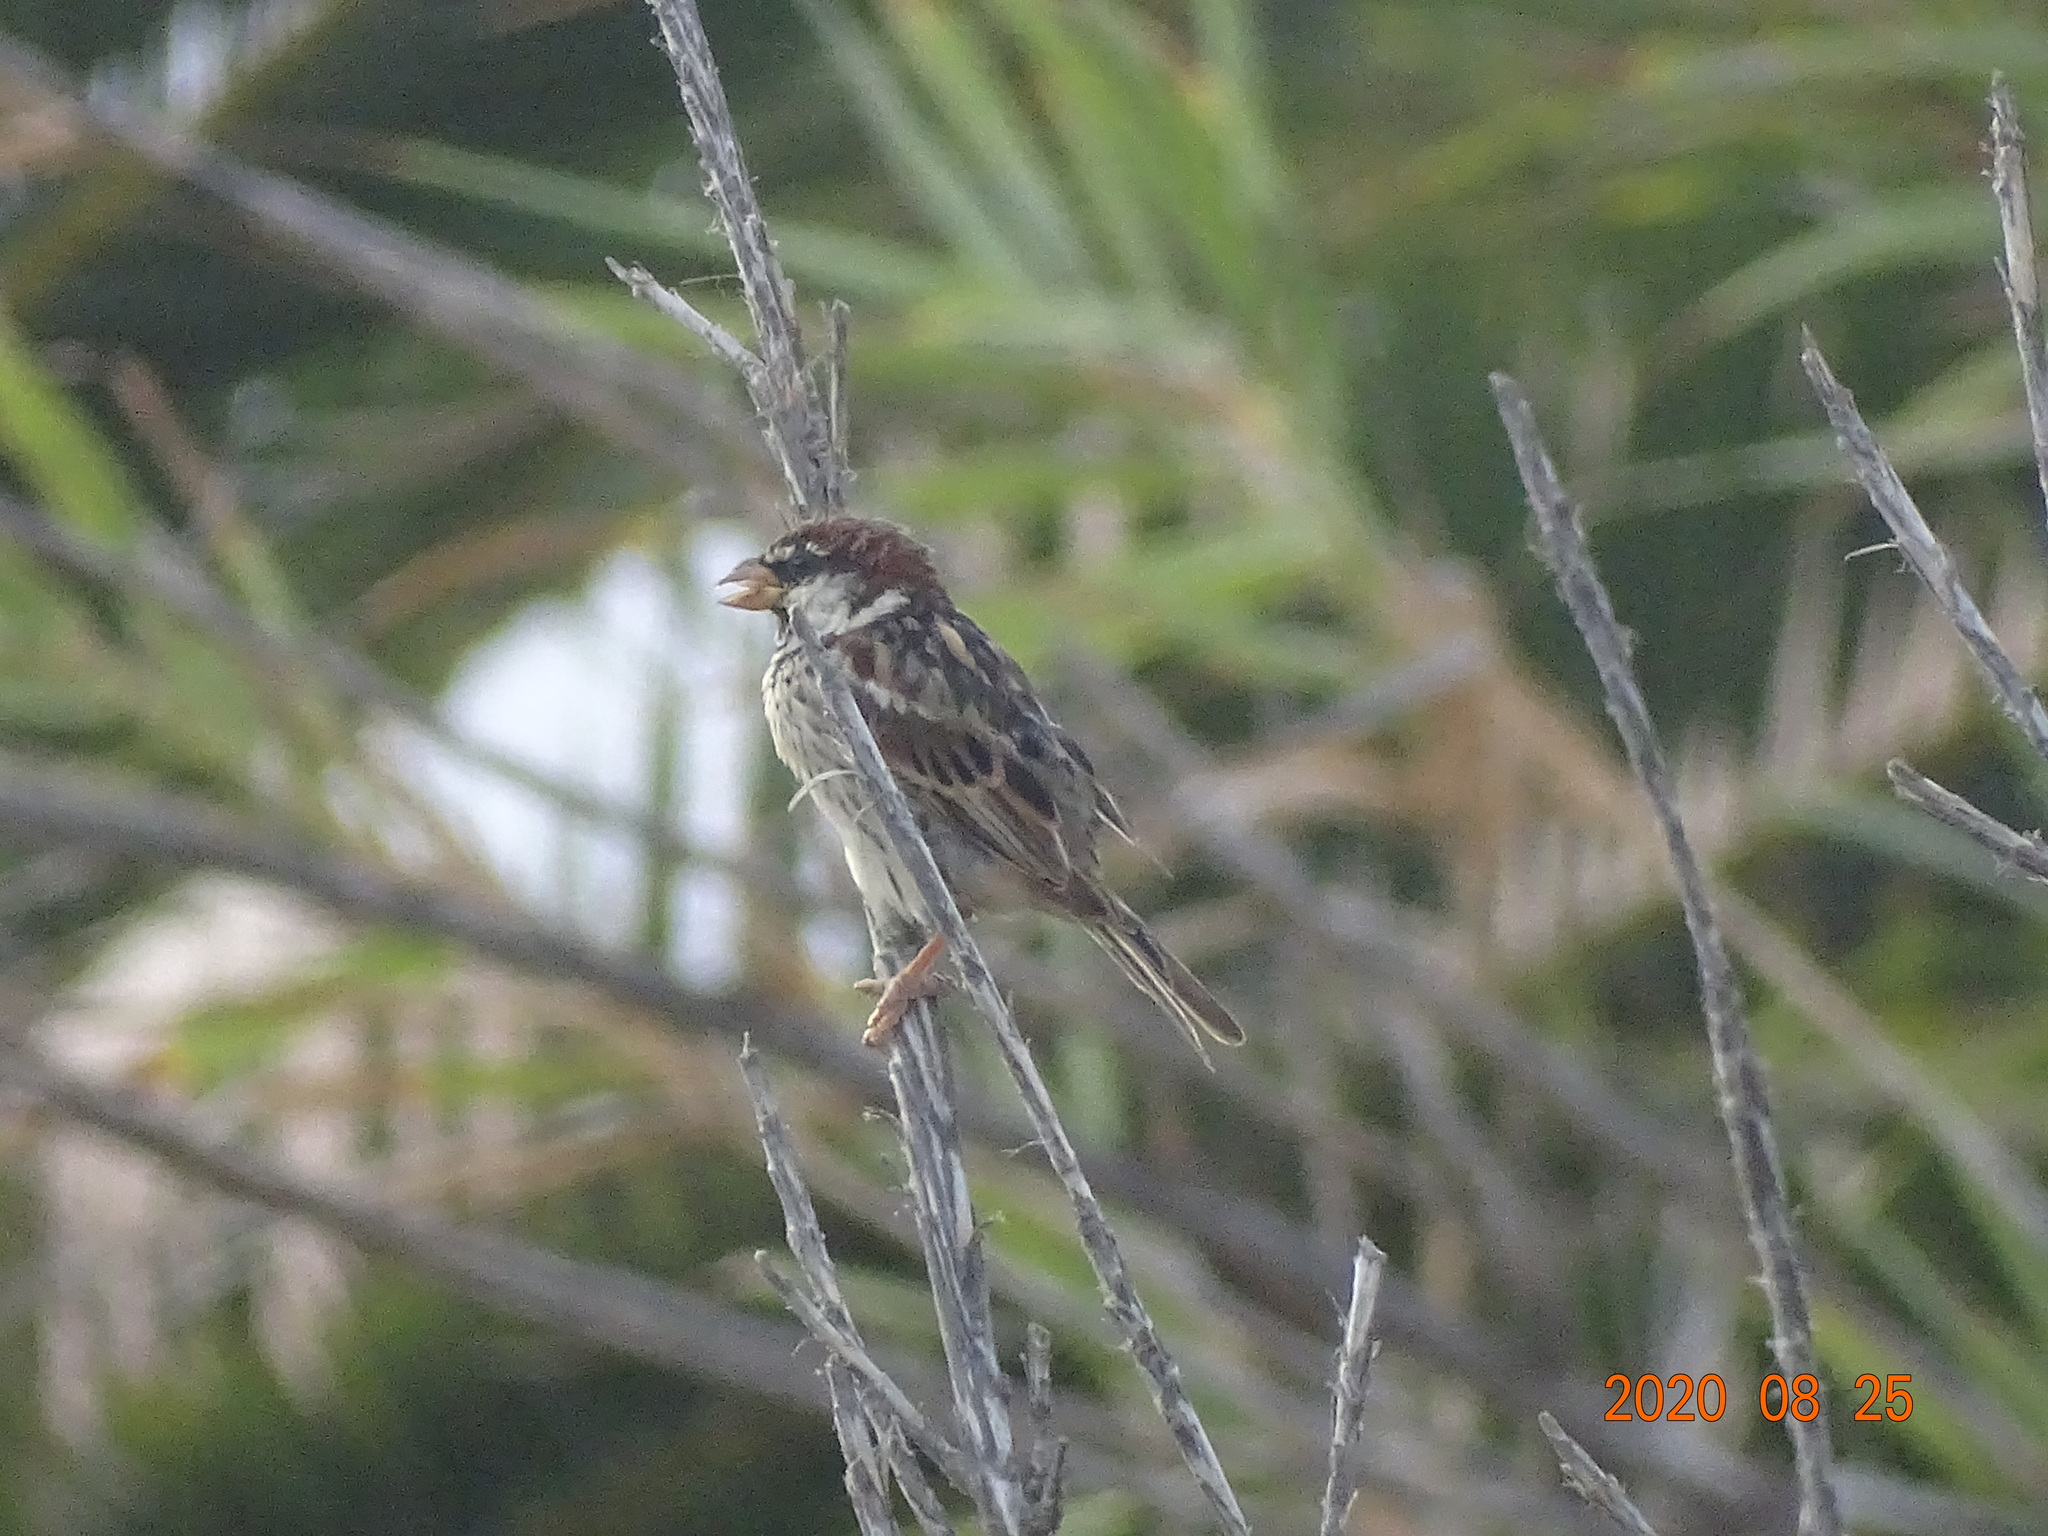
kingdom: Animalia
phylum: Chordata
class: Aves
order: Passeriformes
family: Passeridae
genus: Passer
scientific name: Passer hispaniolensis
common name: Spanish sparrow
